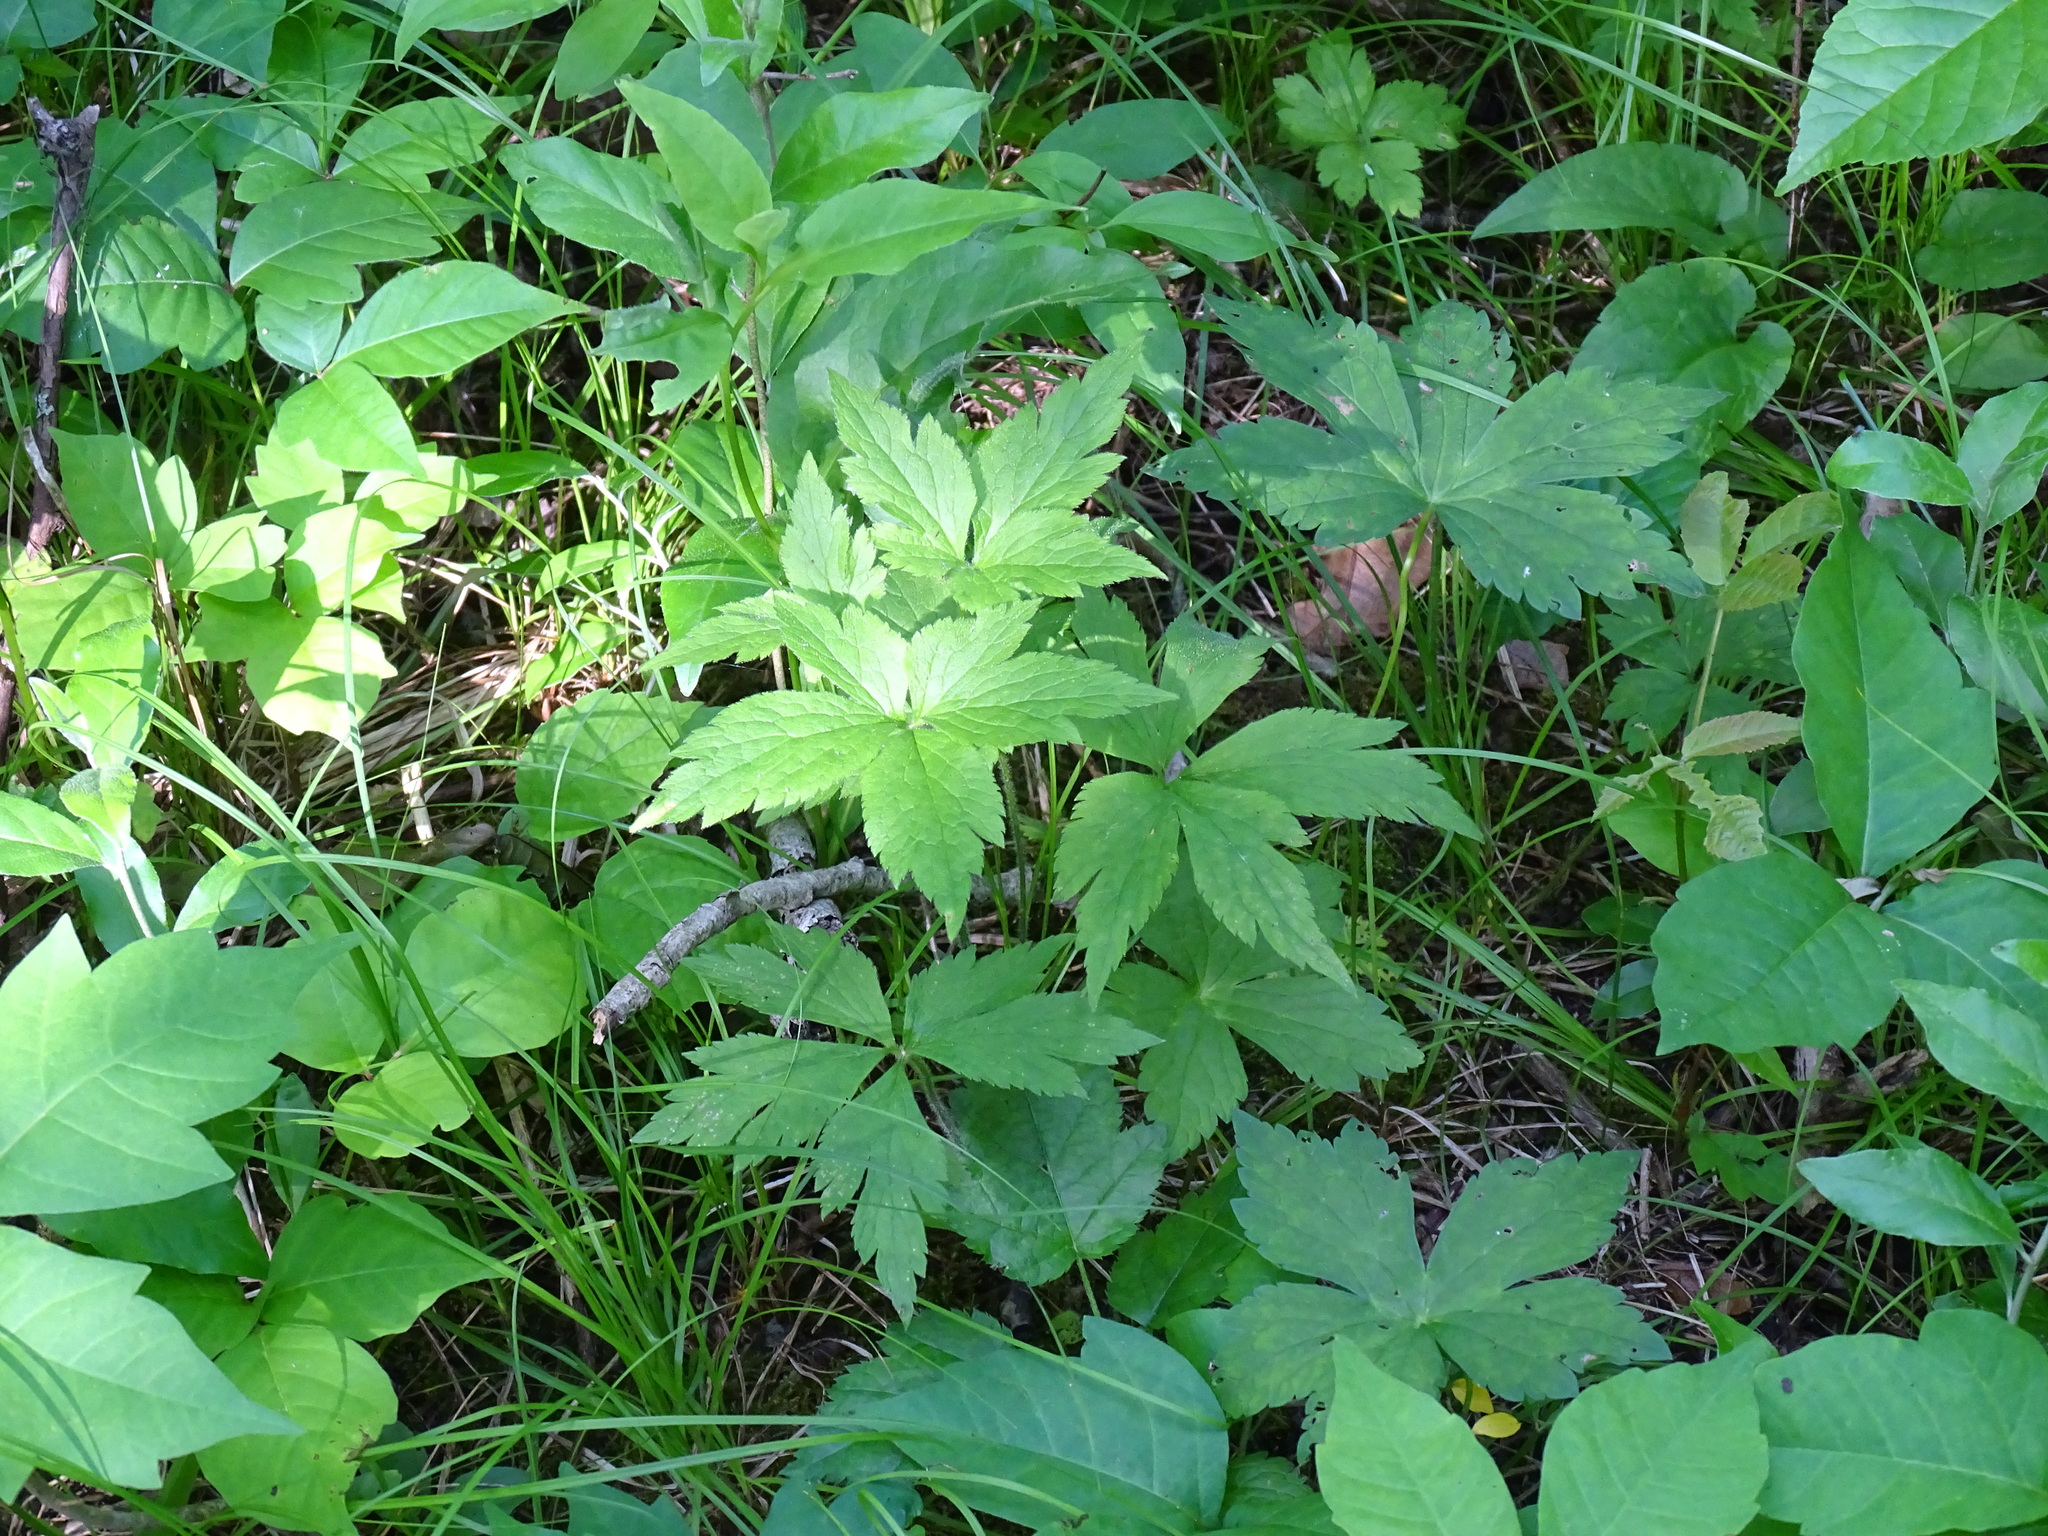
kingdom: Plantae
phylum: Tracheophyta
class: Magnoliopsida
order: Ranunculales
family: Ranunculaceae
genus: Anemone
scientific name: Anemone virginiana
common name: Tall anemone
